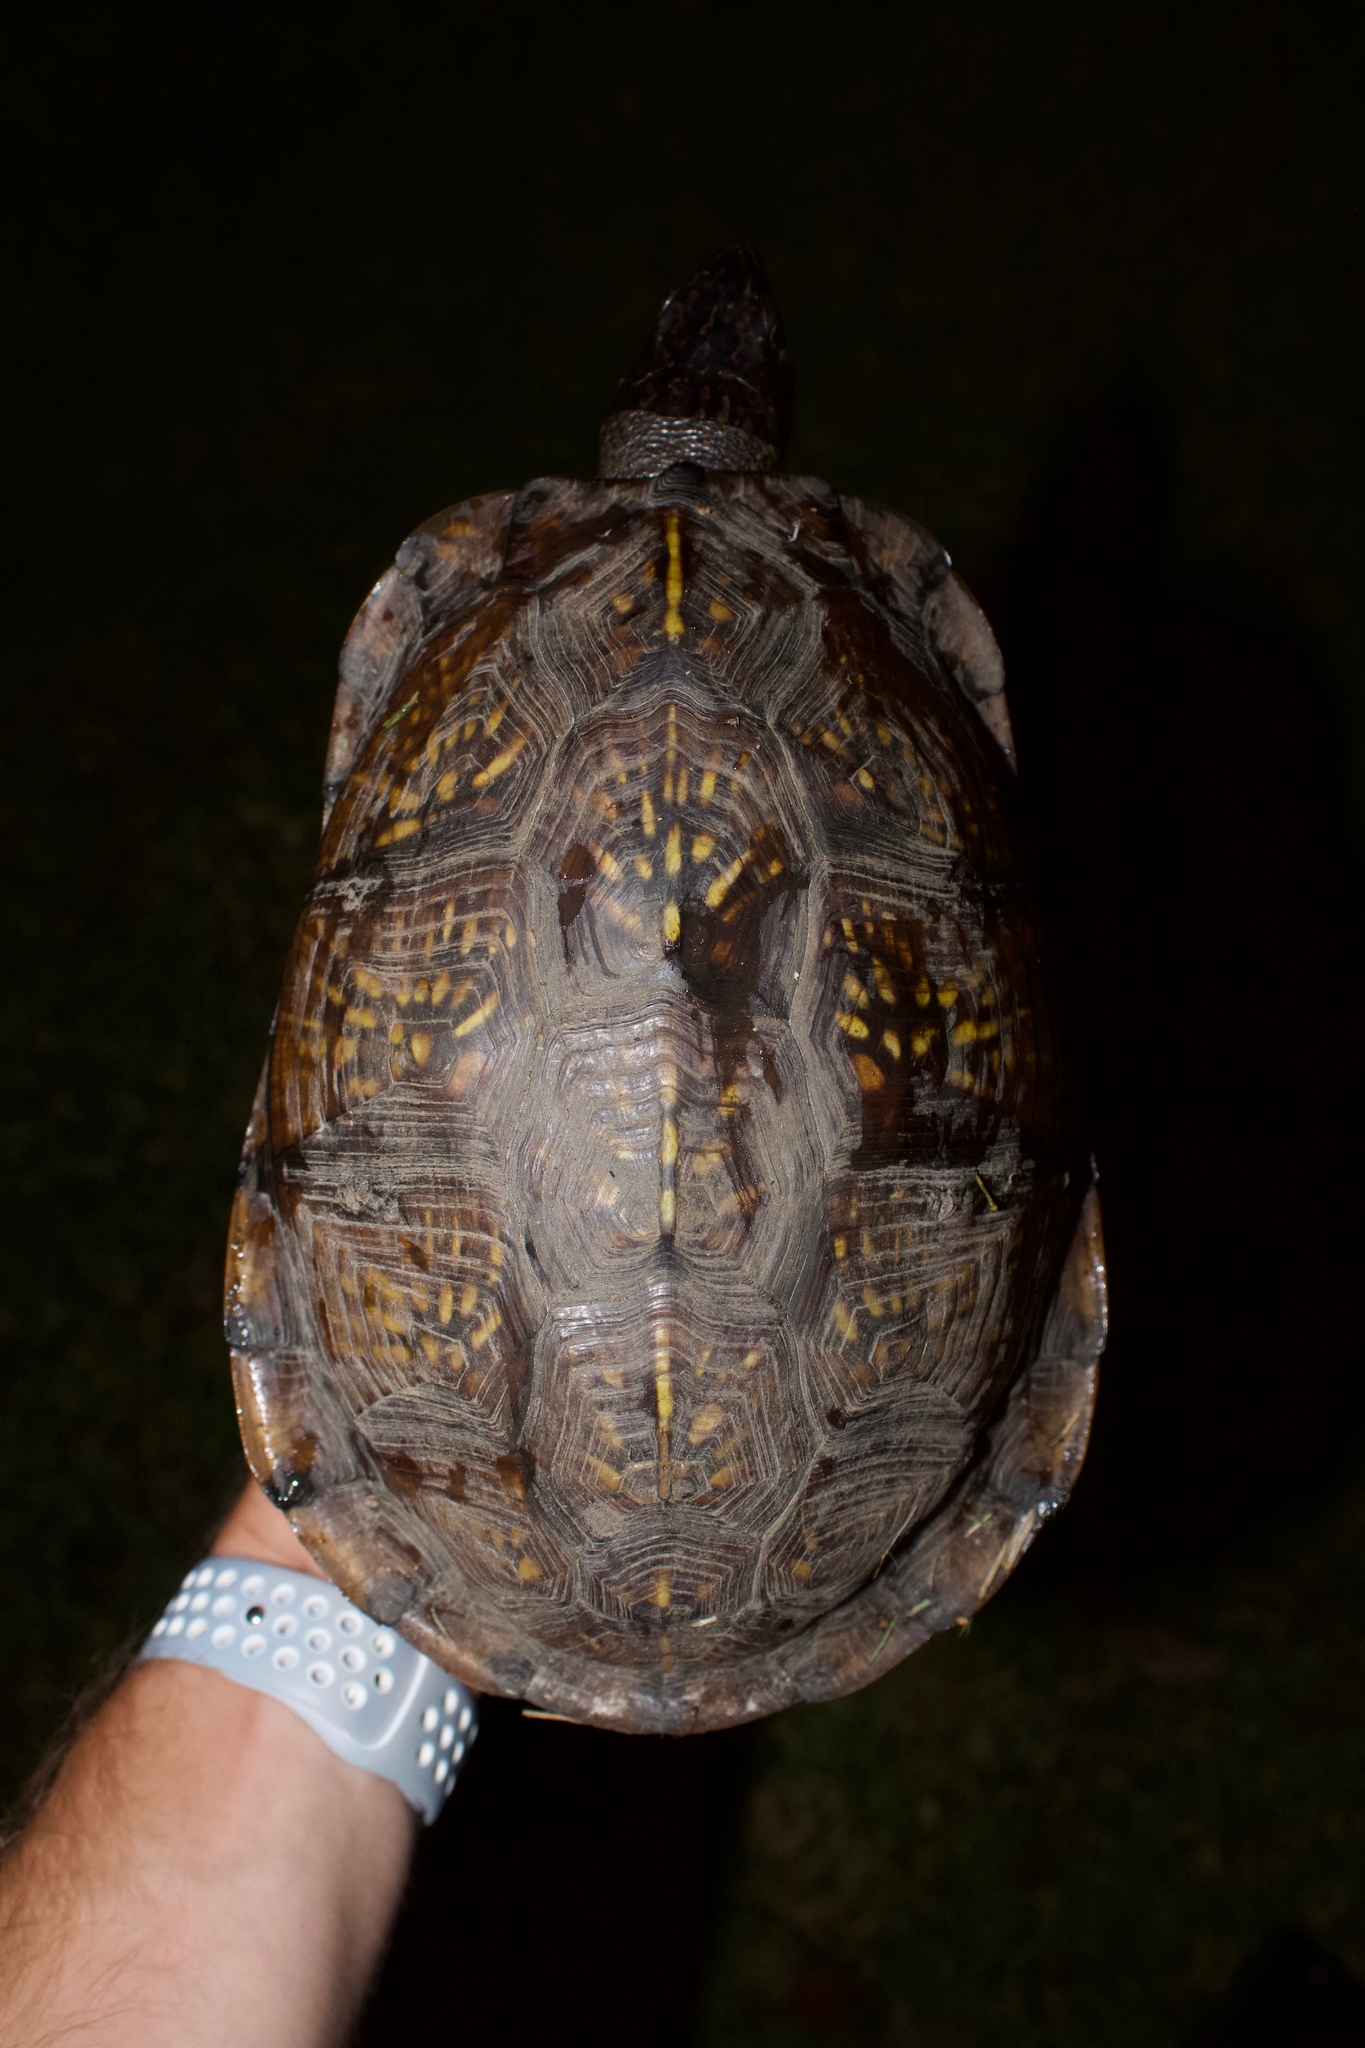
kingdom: Animalia
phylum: Chordata
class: Testudines
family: Emydidae
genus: Terrapene
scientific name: Terrapene carolina
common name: Common box turtle
